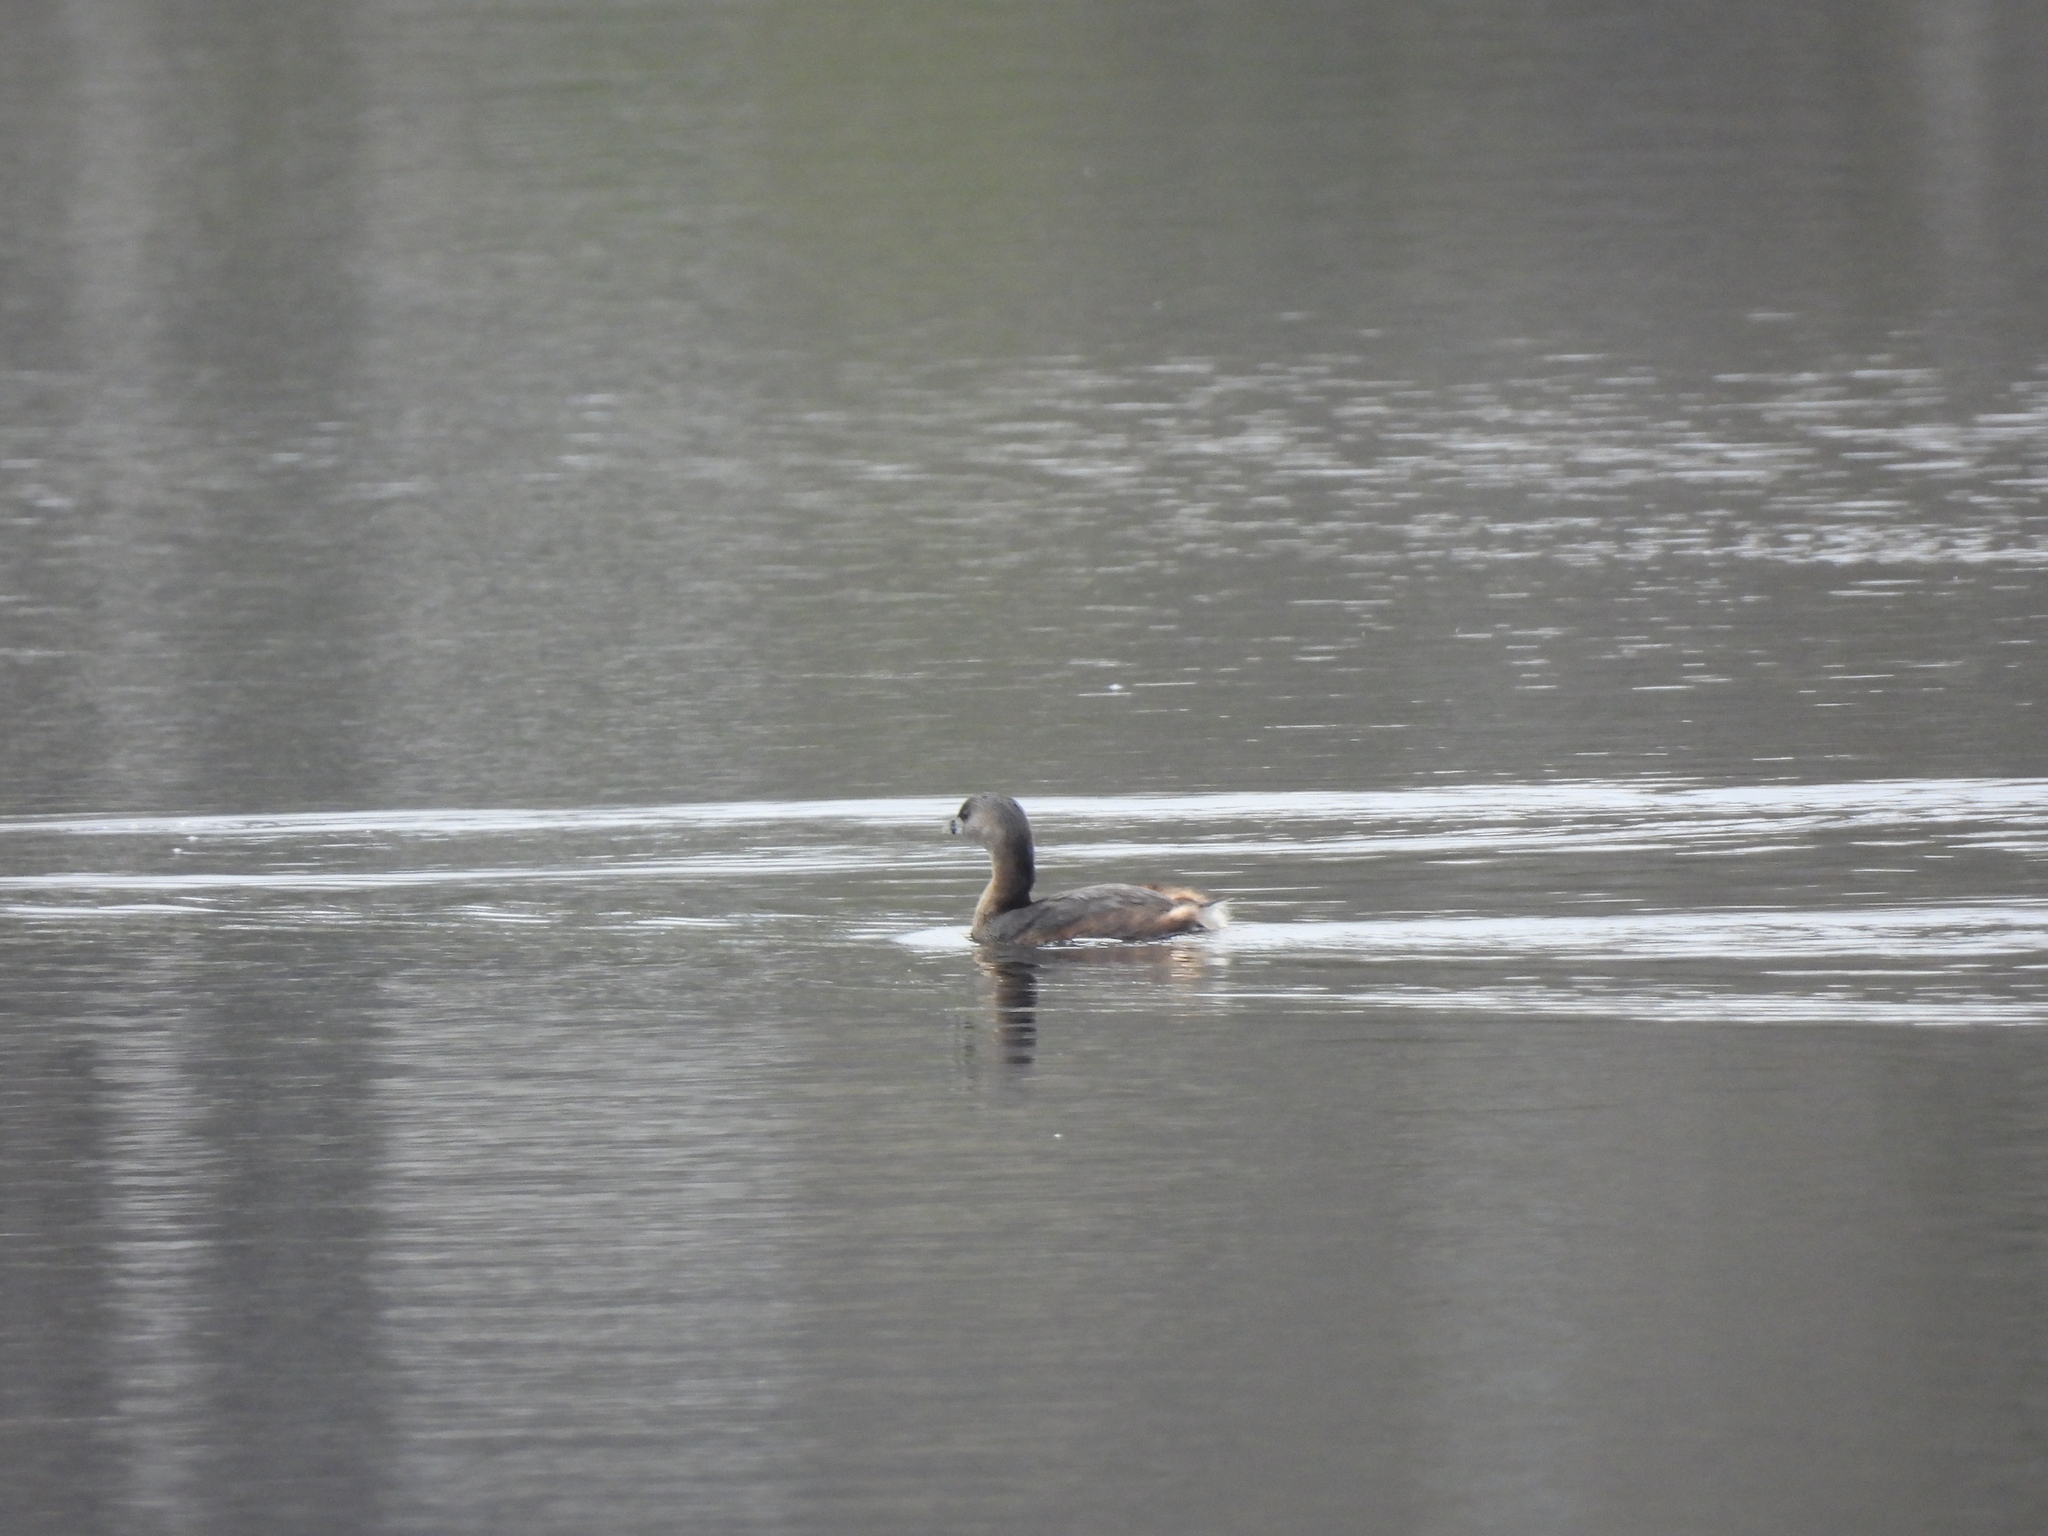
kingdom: Animalia
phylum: Chordata
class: Aves
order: Podicipediformes
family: Podicipedidae
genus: Podilymbus
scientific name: Podilymbus podiceps
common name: Pied-billed grebe
